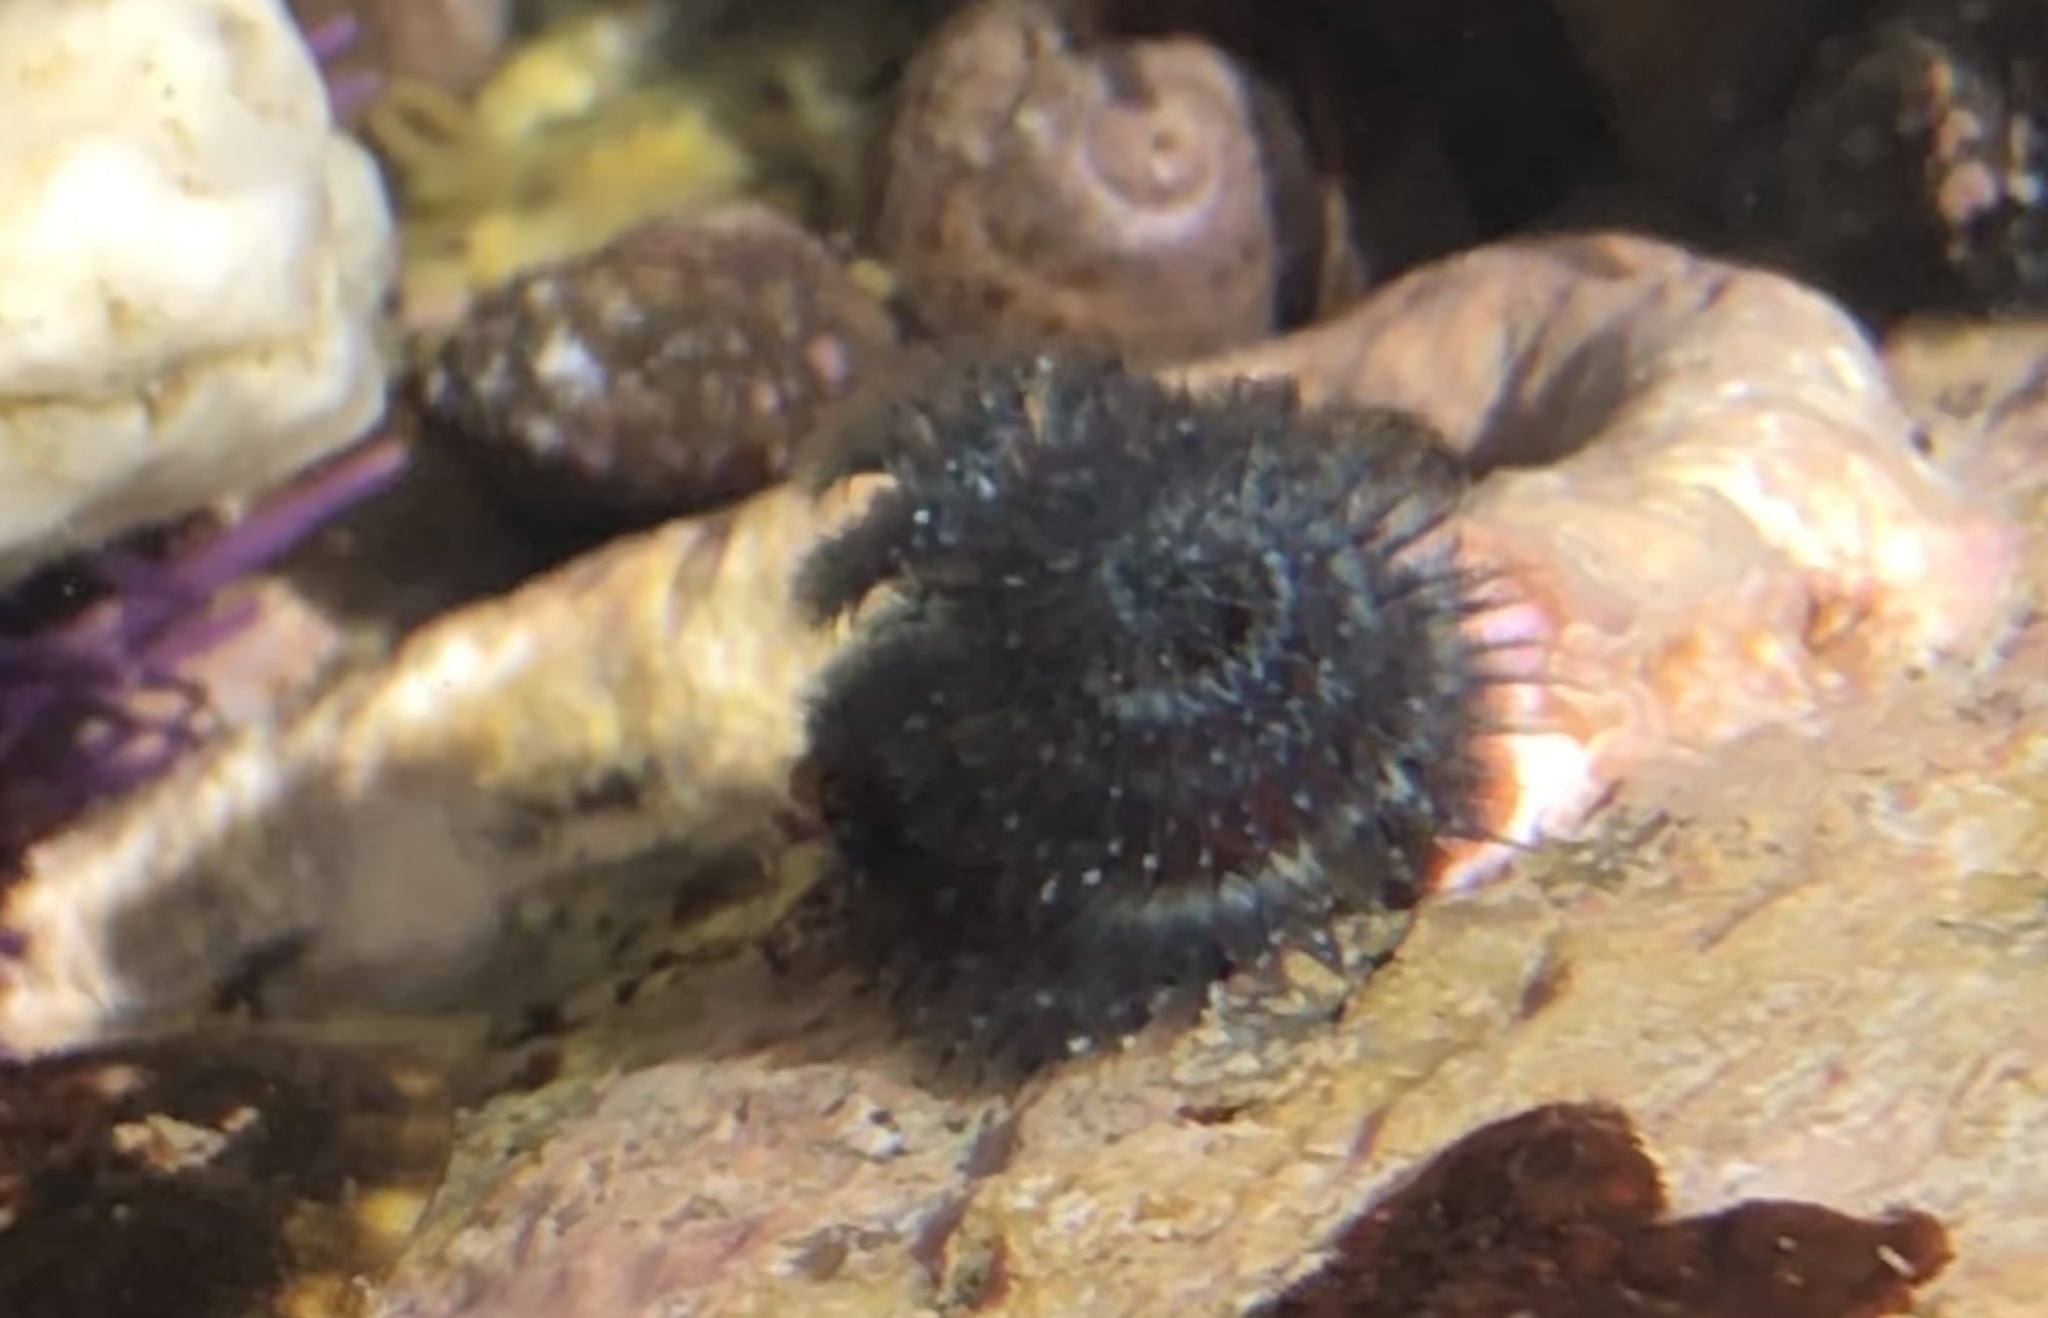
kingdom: Animalia
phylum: Annelida
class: Polychaeta
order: Sabellida
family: Serpulidae
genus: Spirobranchus
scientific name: Spirobranchus spinosus
